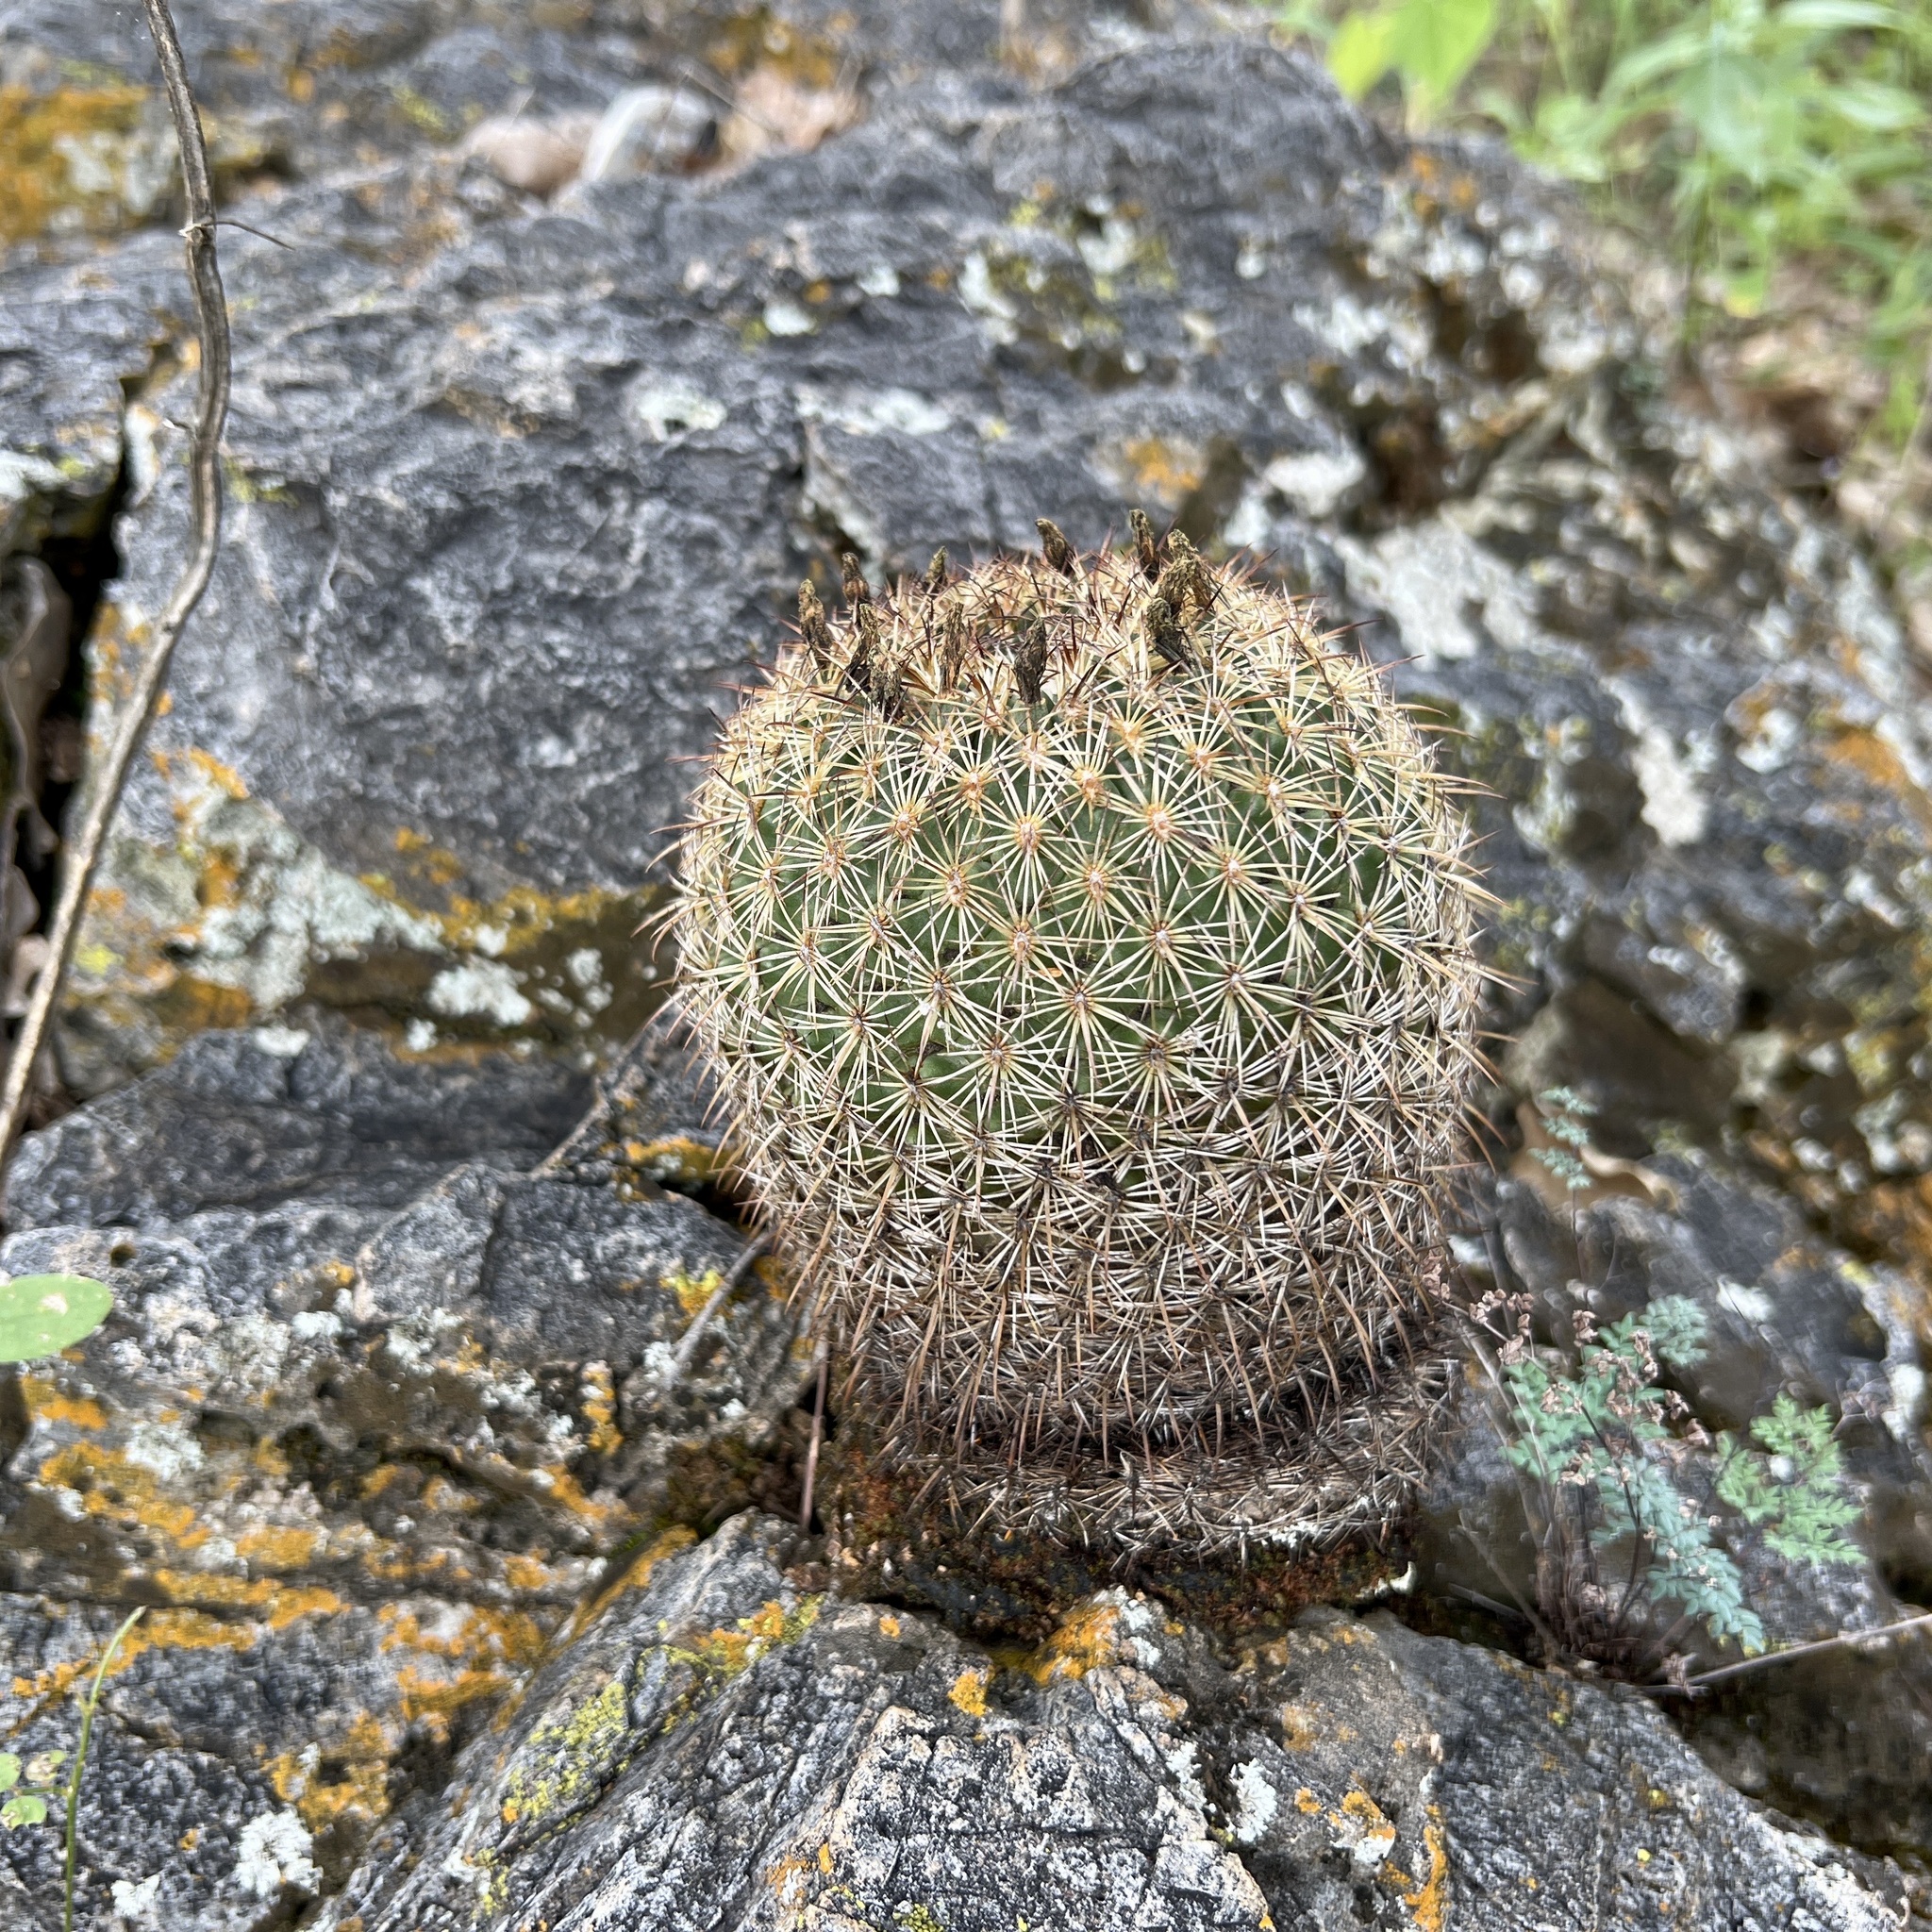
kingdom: Plantae
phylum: Tracheophyta
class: Magnoliopsida
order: Caryophyllales
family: Cactaceae
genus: Coryphantha
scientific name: Coryphantha recurvata
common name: Golden chested beehive
